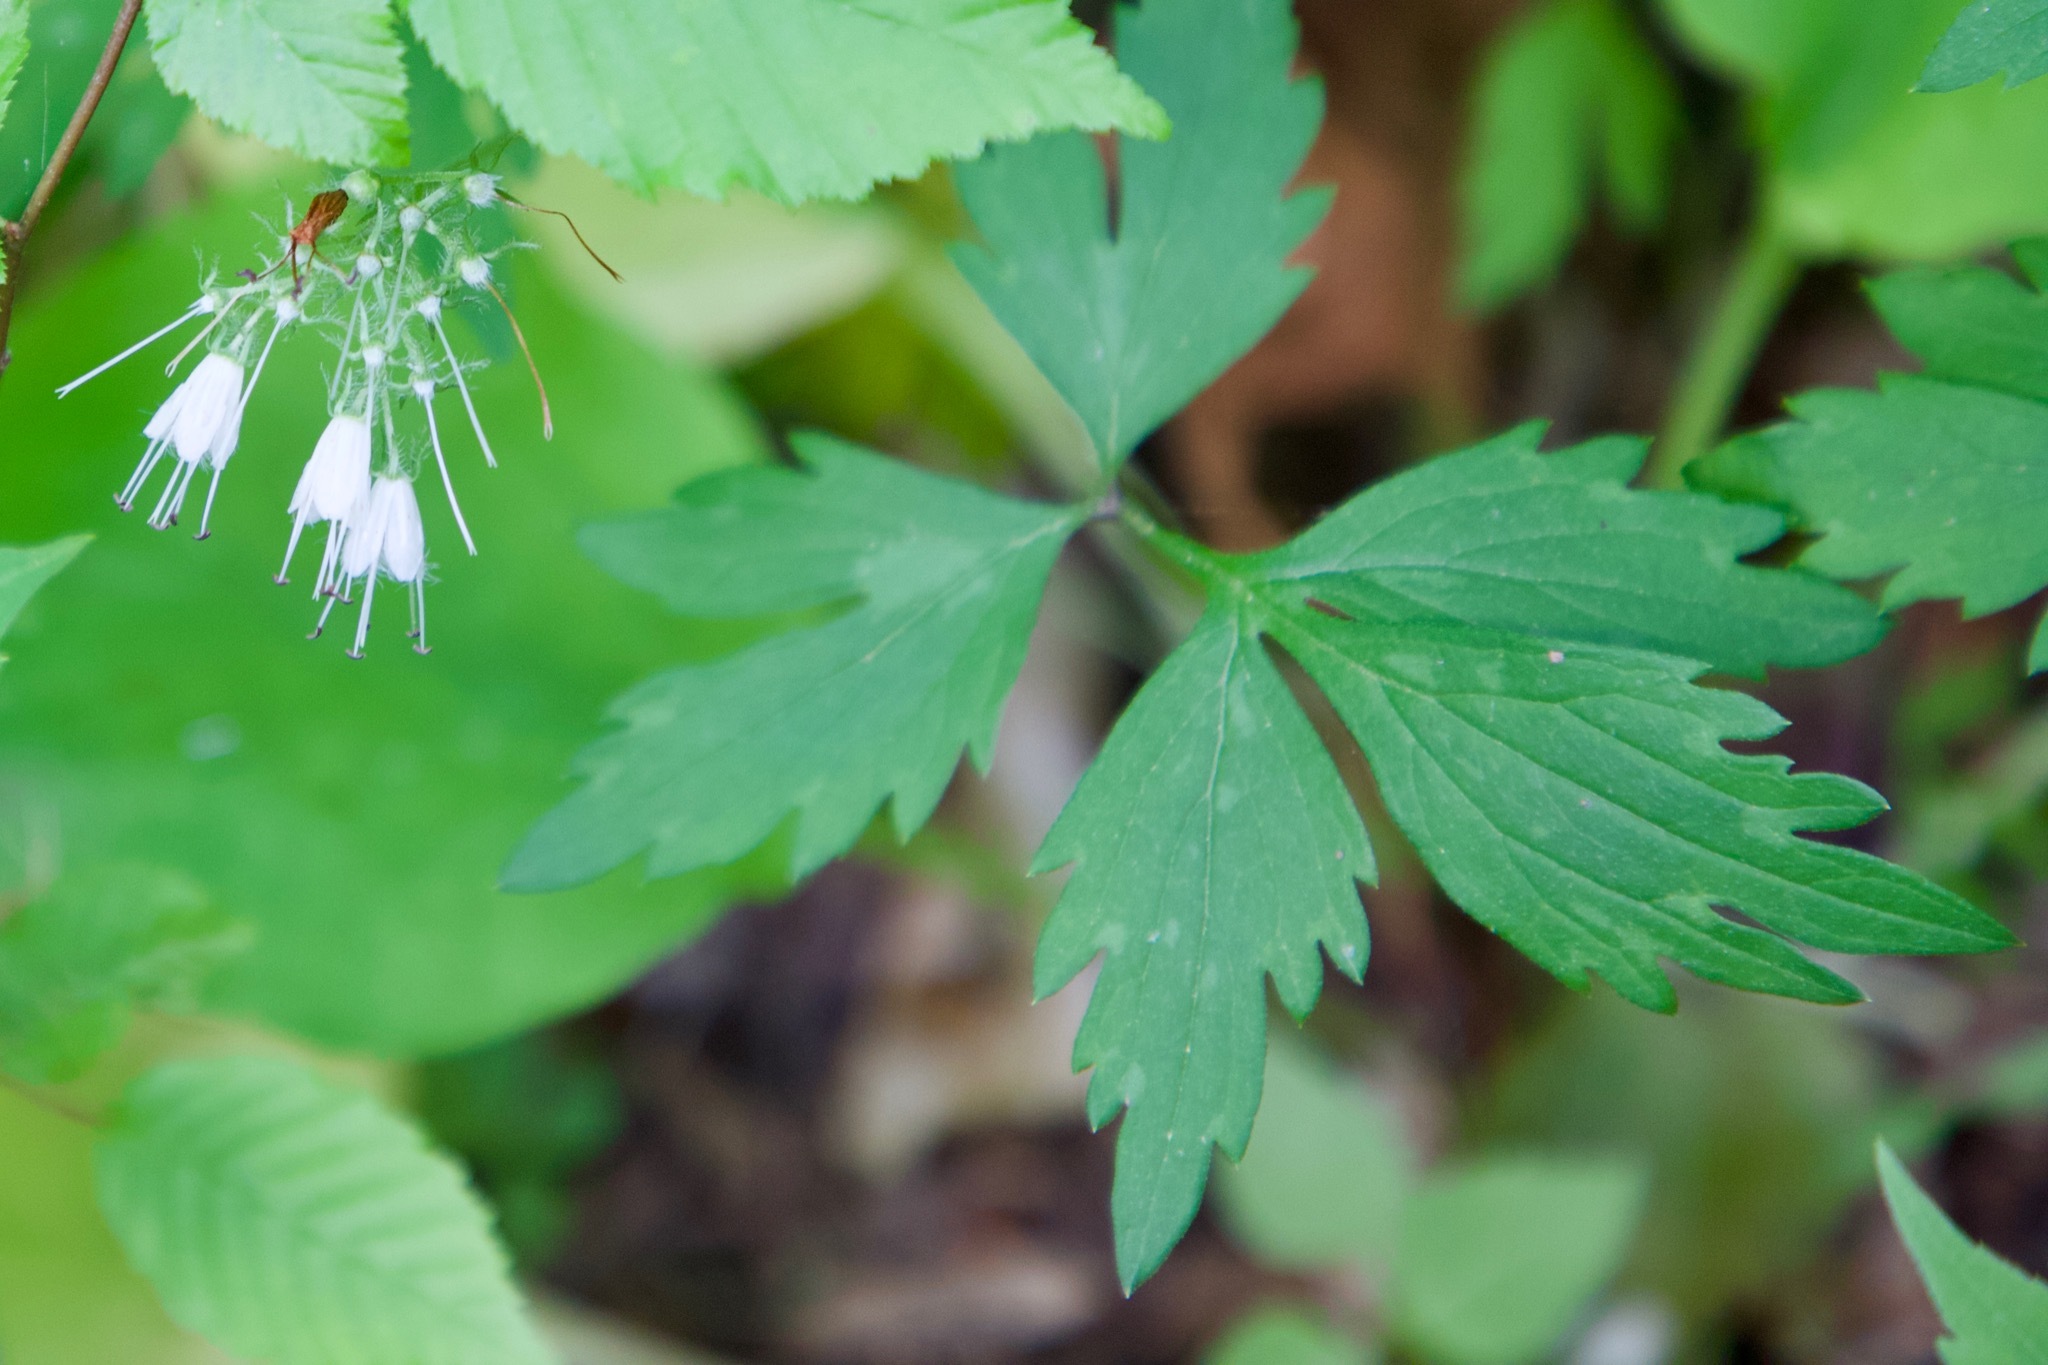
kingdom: Plantae
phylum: Tracheophyta
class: Magnoliopsida
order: Boraginales
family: Hydrophyllaceae
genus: Hydrophyllum
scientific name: Hydrophyllum virginianum
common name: Virginia waterleaf
